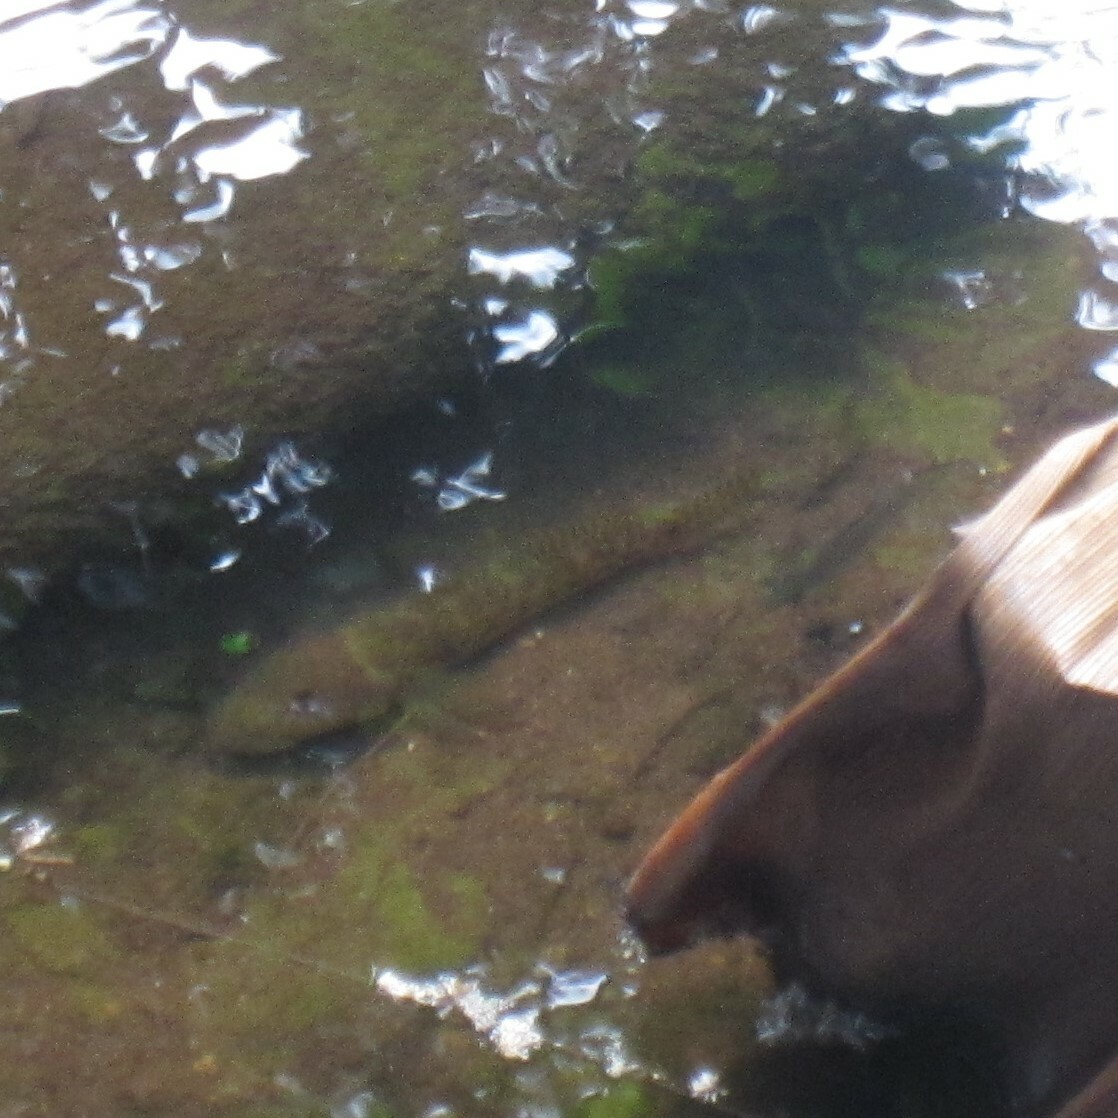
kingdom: Animalia
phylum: Chordata
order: Perciformes
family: Gobiidae
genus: Awaous
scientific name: Awaous stamineus
